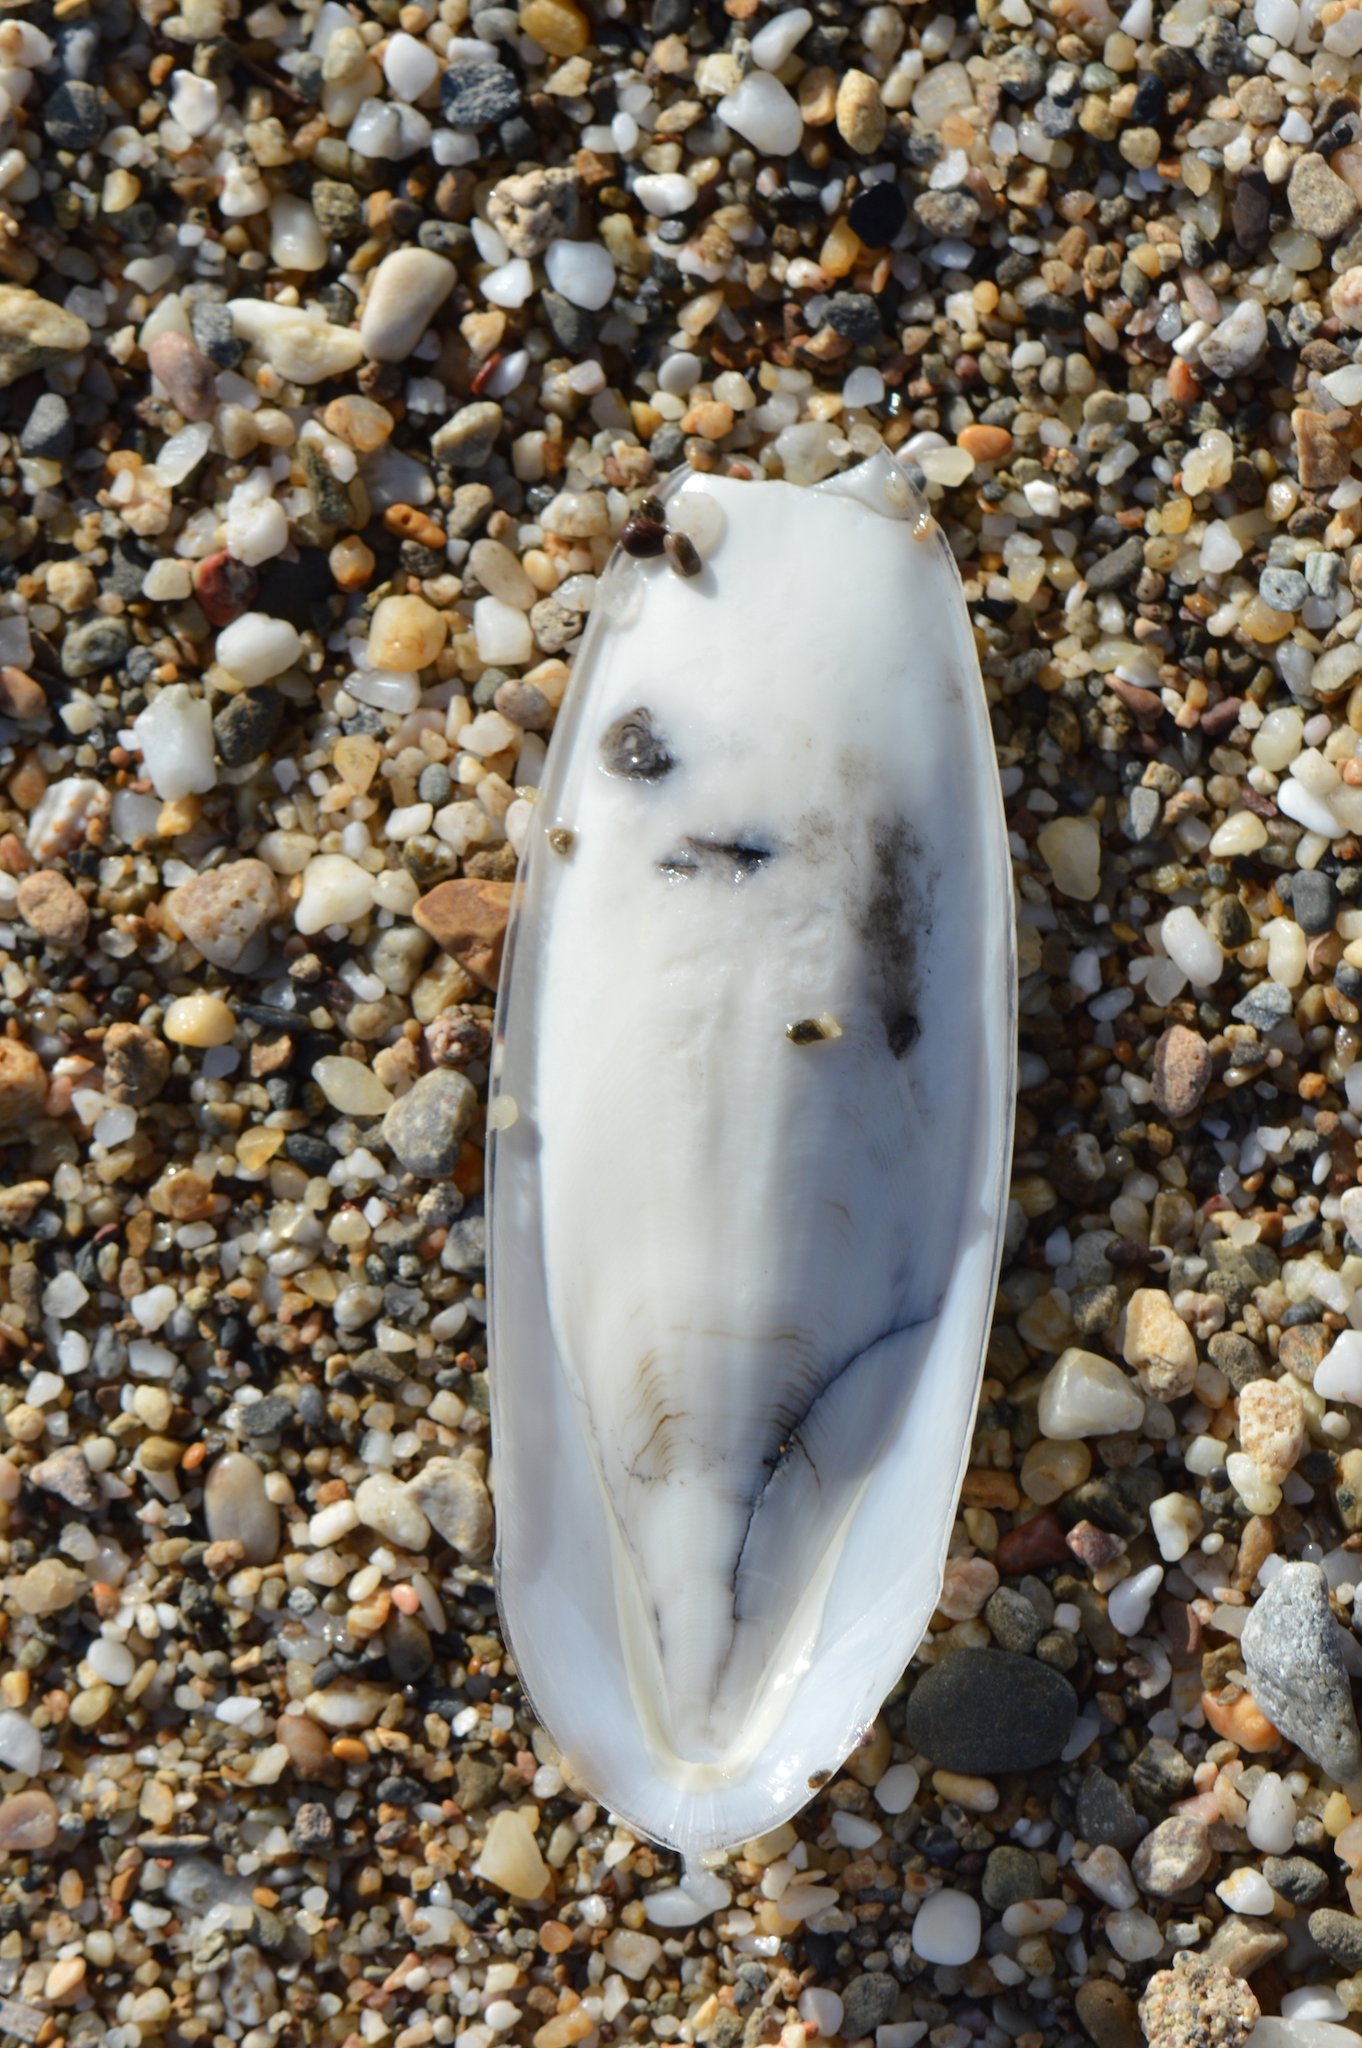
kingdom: Animalia
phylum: Mollusca
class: Cephalopoda
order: Sepiida
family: Sepiidae
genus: Sepia
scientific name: Sepia officinalis
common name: Common cuttlefish
